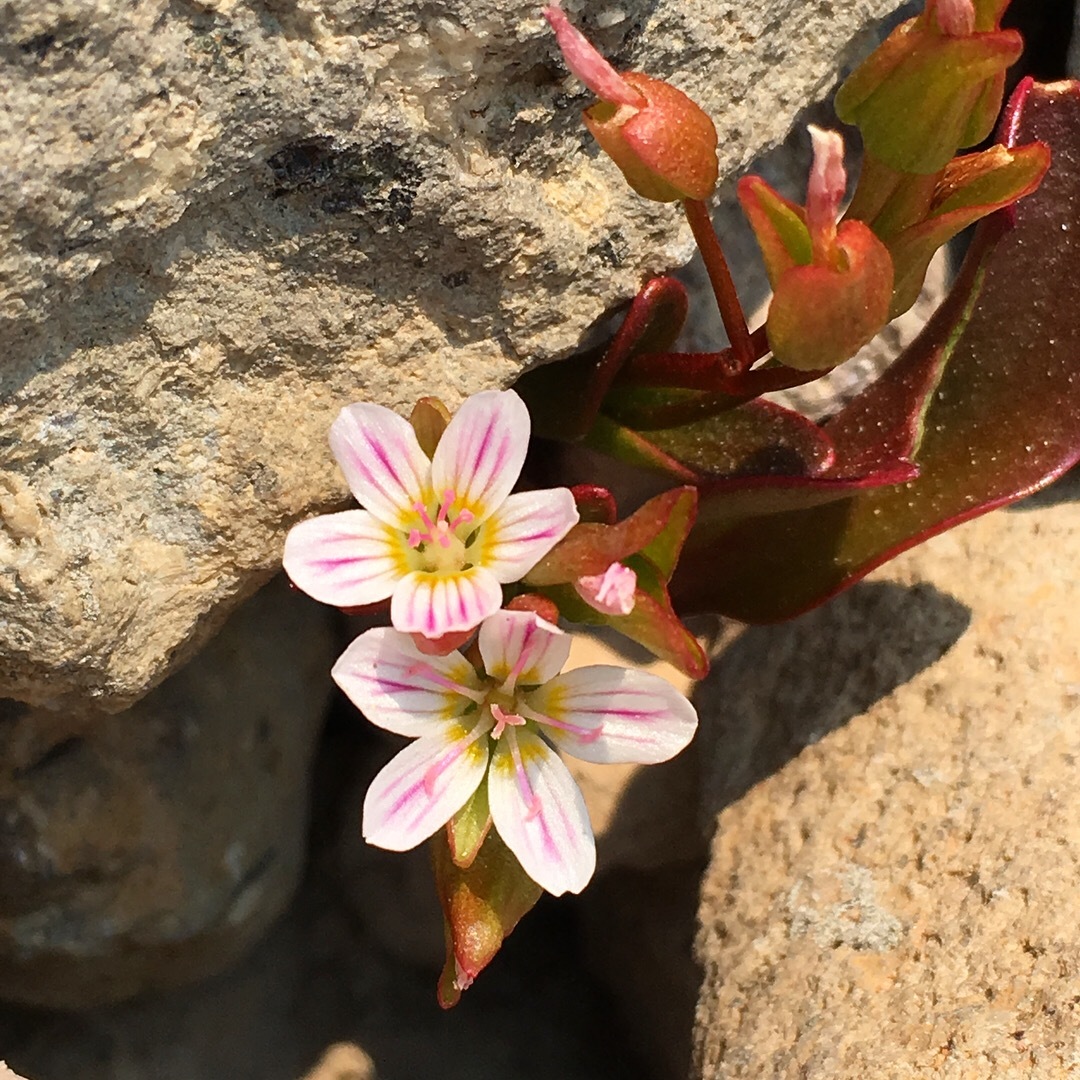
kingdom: Plantae
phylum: Tracheophyta
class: Magnoliopsida
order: Caryophyllales
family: Montiaceae
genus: Claytonia
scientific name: Claytonia nevadensis
